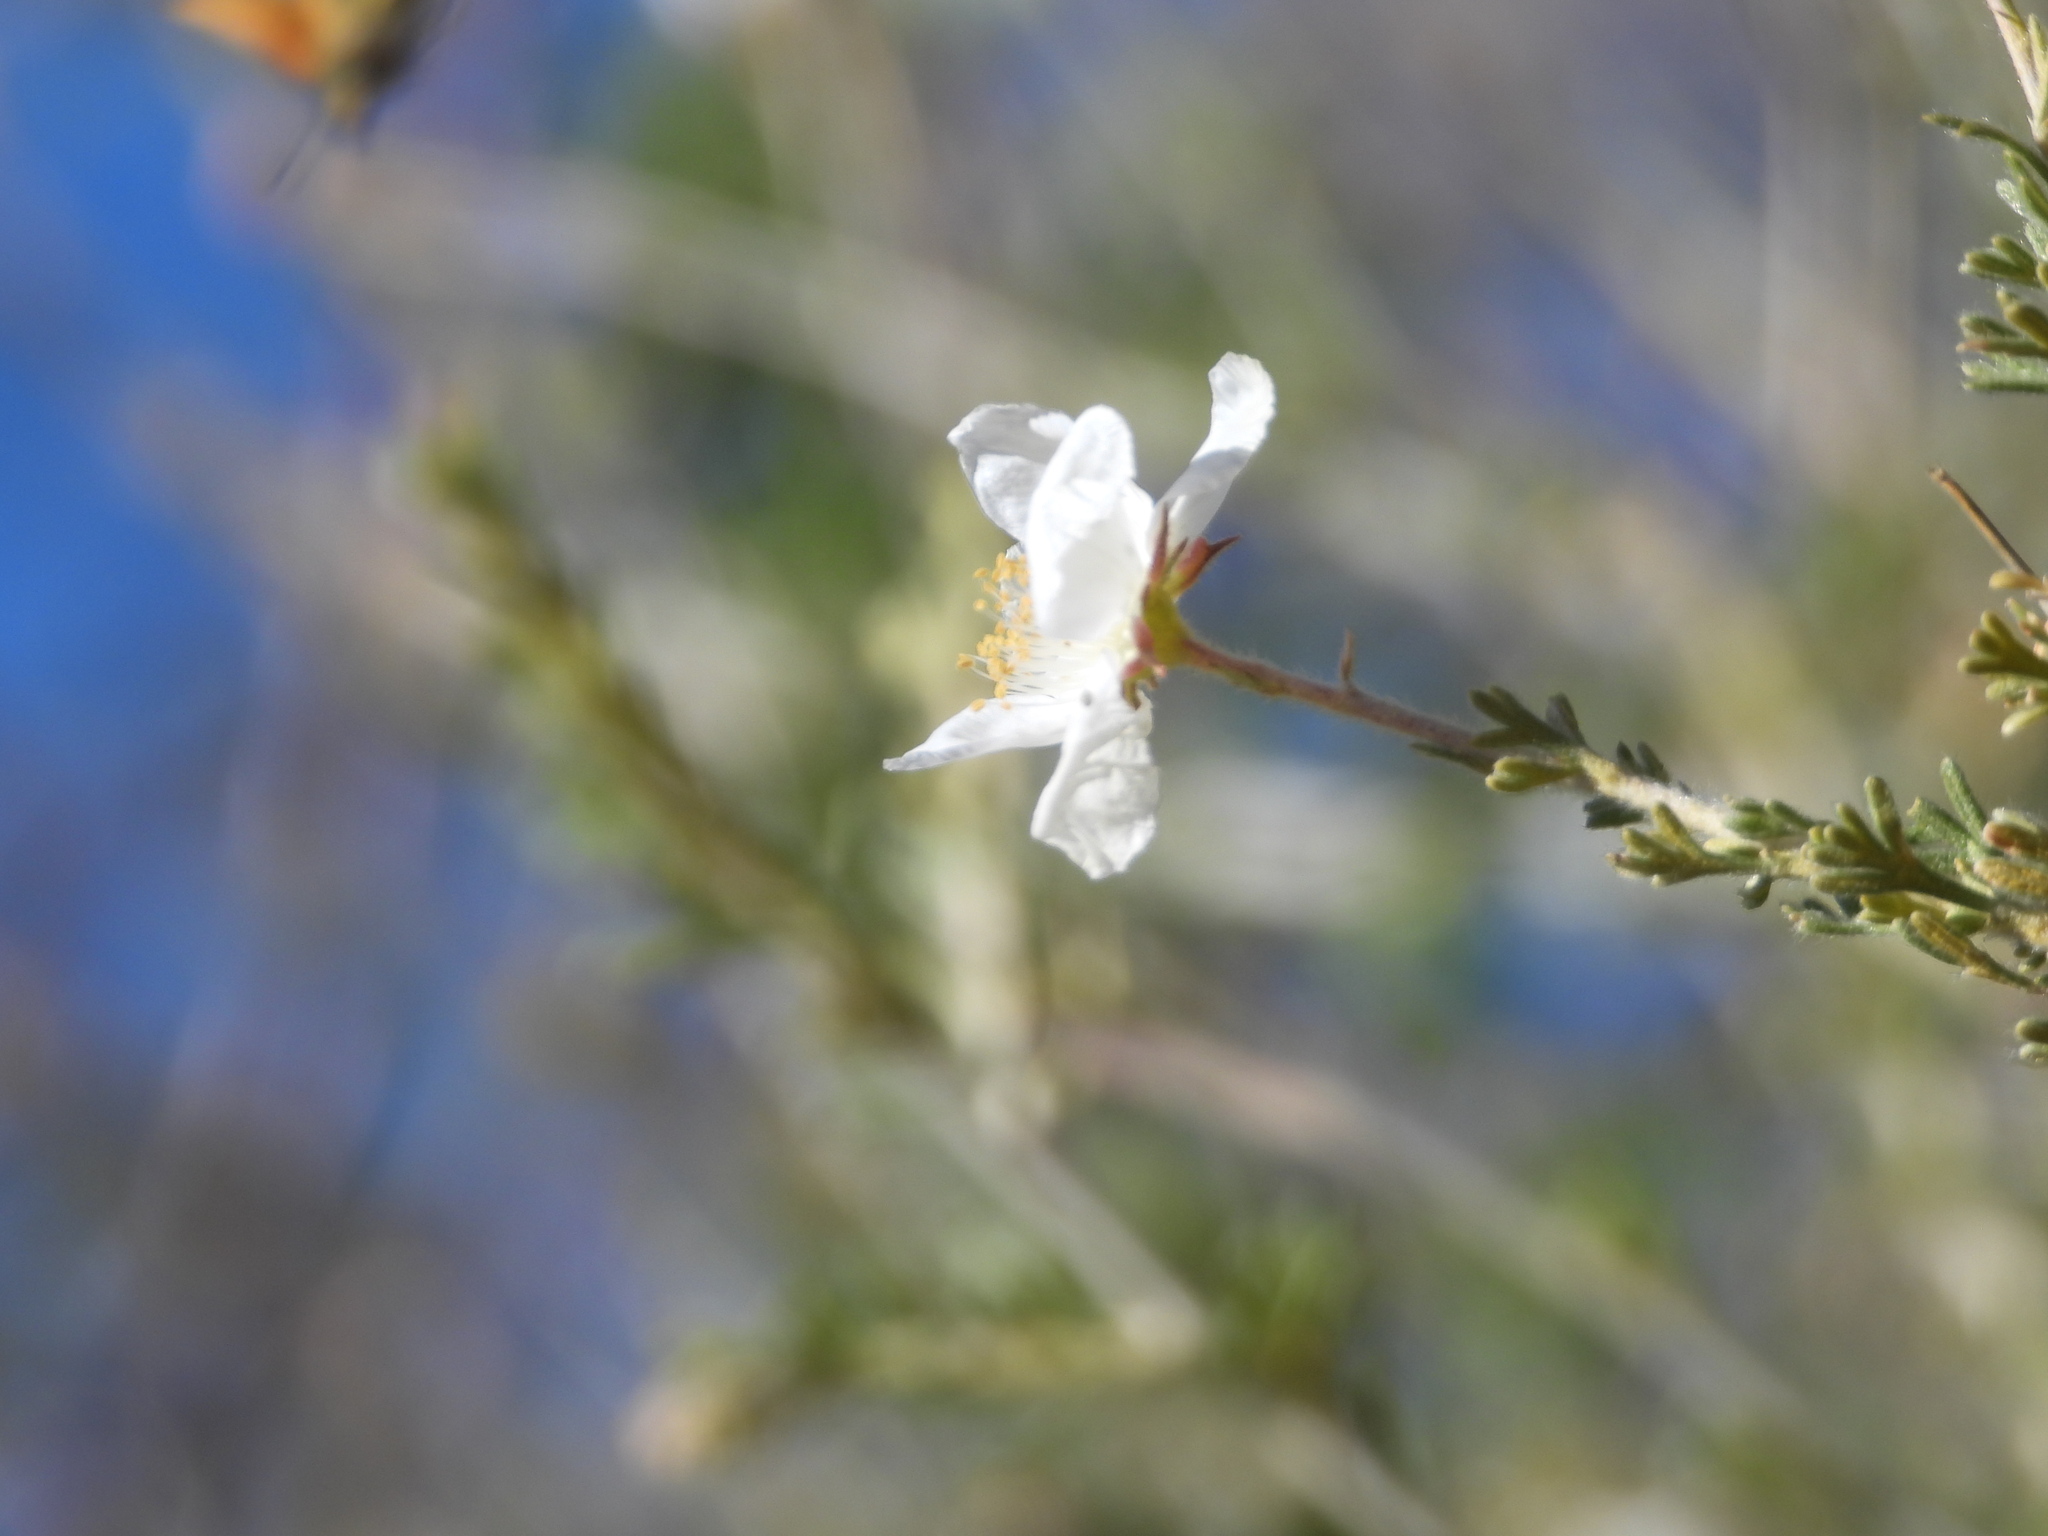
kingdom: Plantae
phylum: Tracheophyta
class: Magnoliopsida
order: Rosales
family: Rosaceae
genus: Fallugia
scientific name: Fallugia paradoxa
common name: Apache-plume
